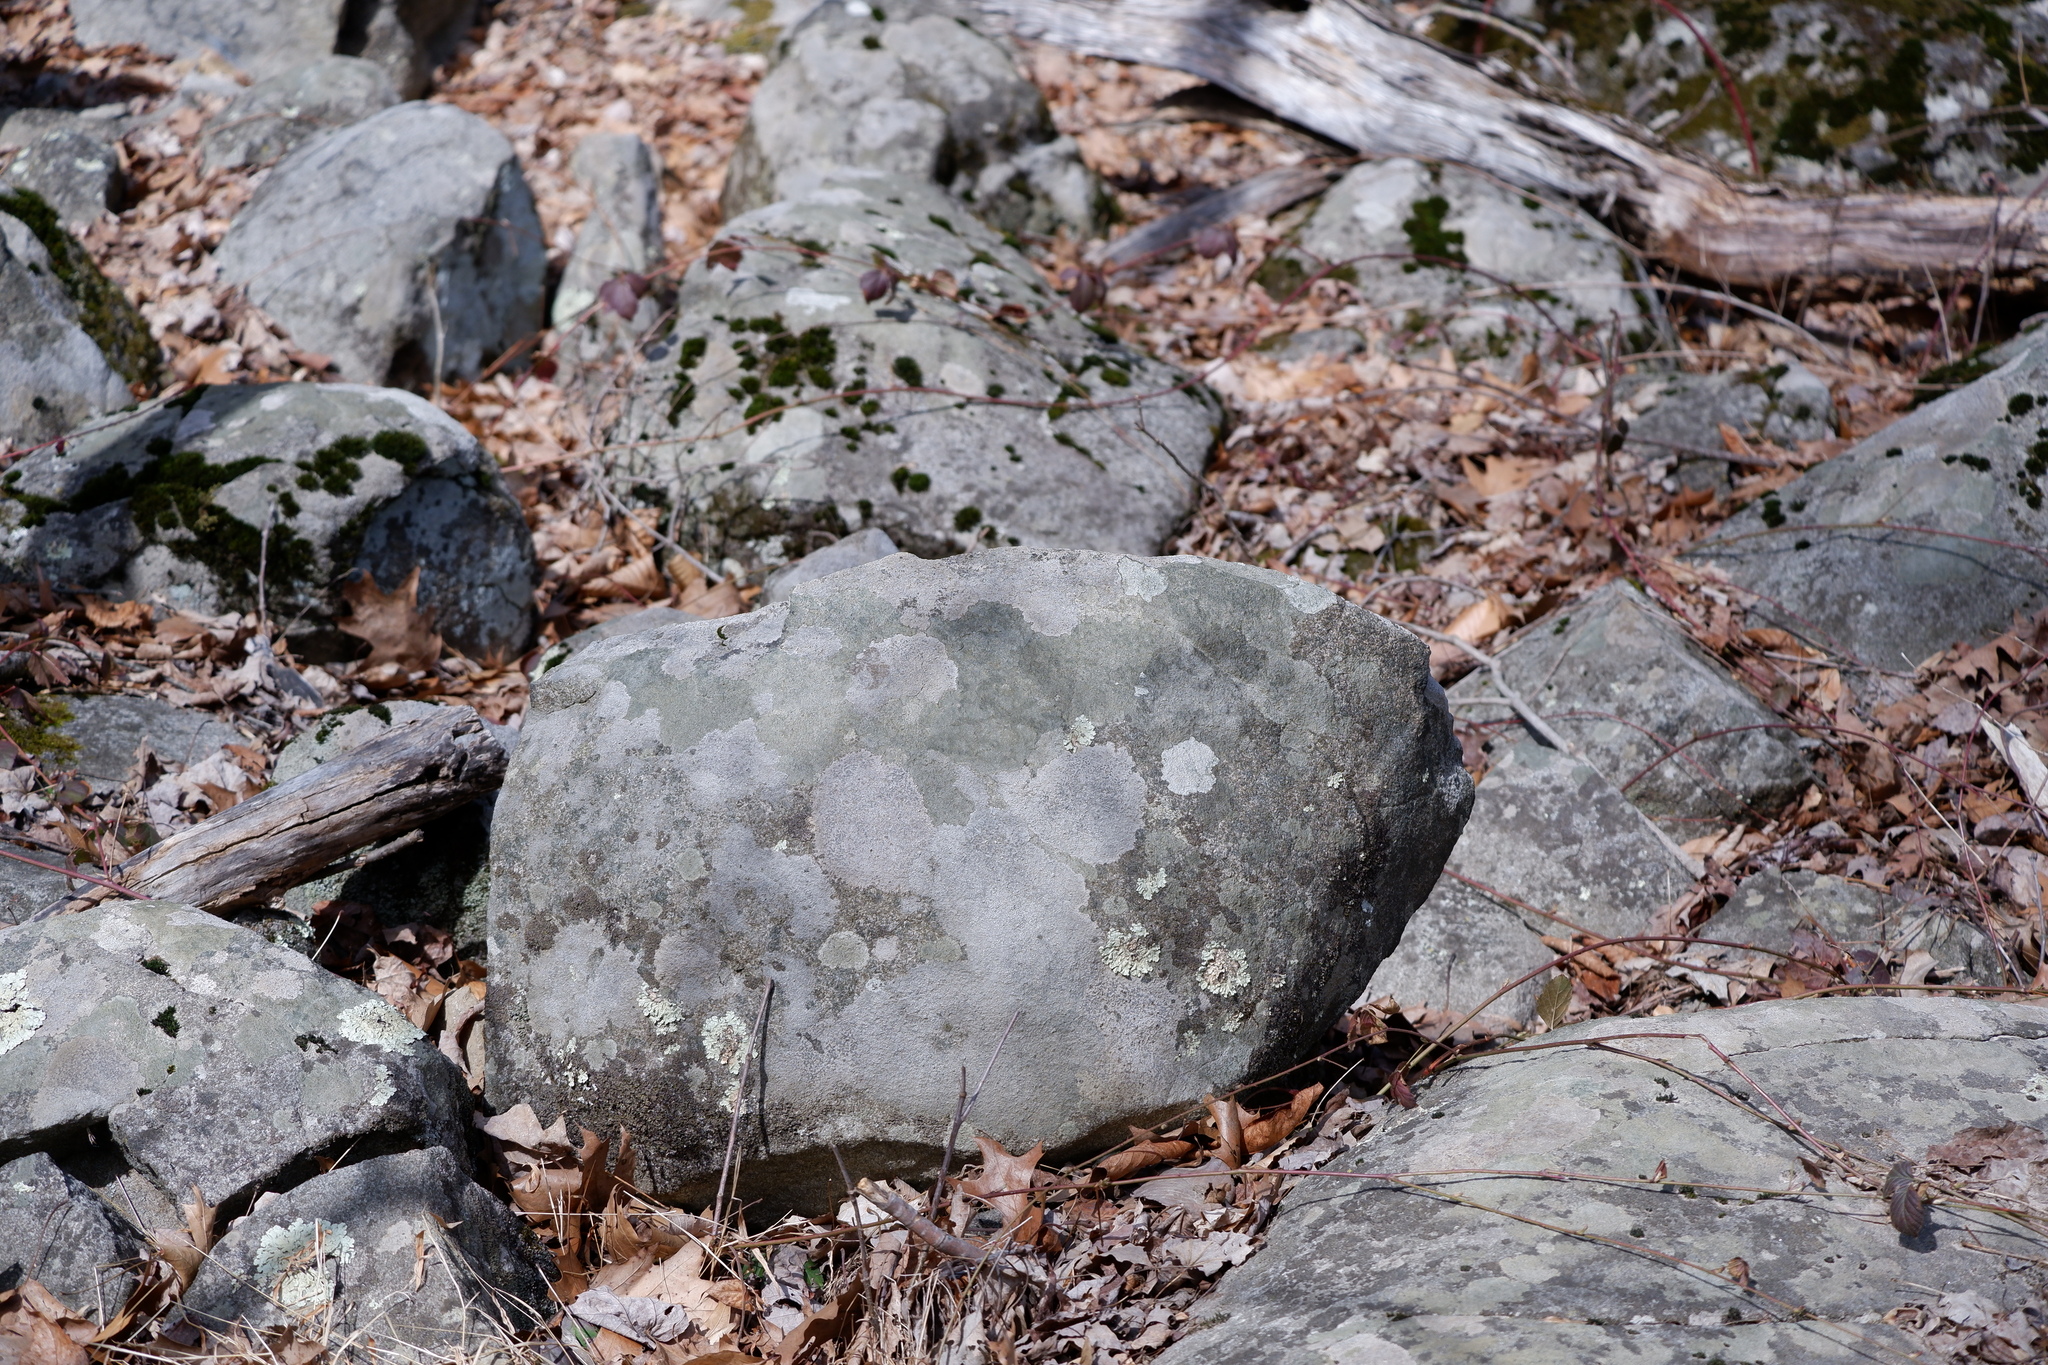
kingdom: Fungi
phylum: Ascomycota
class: Lecanoromycetes
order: Lecideales
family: Lecideaceae
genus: Porpidia
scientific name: Porpidia albocaerulescens
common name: Smokey-eyed boulder lichen
